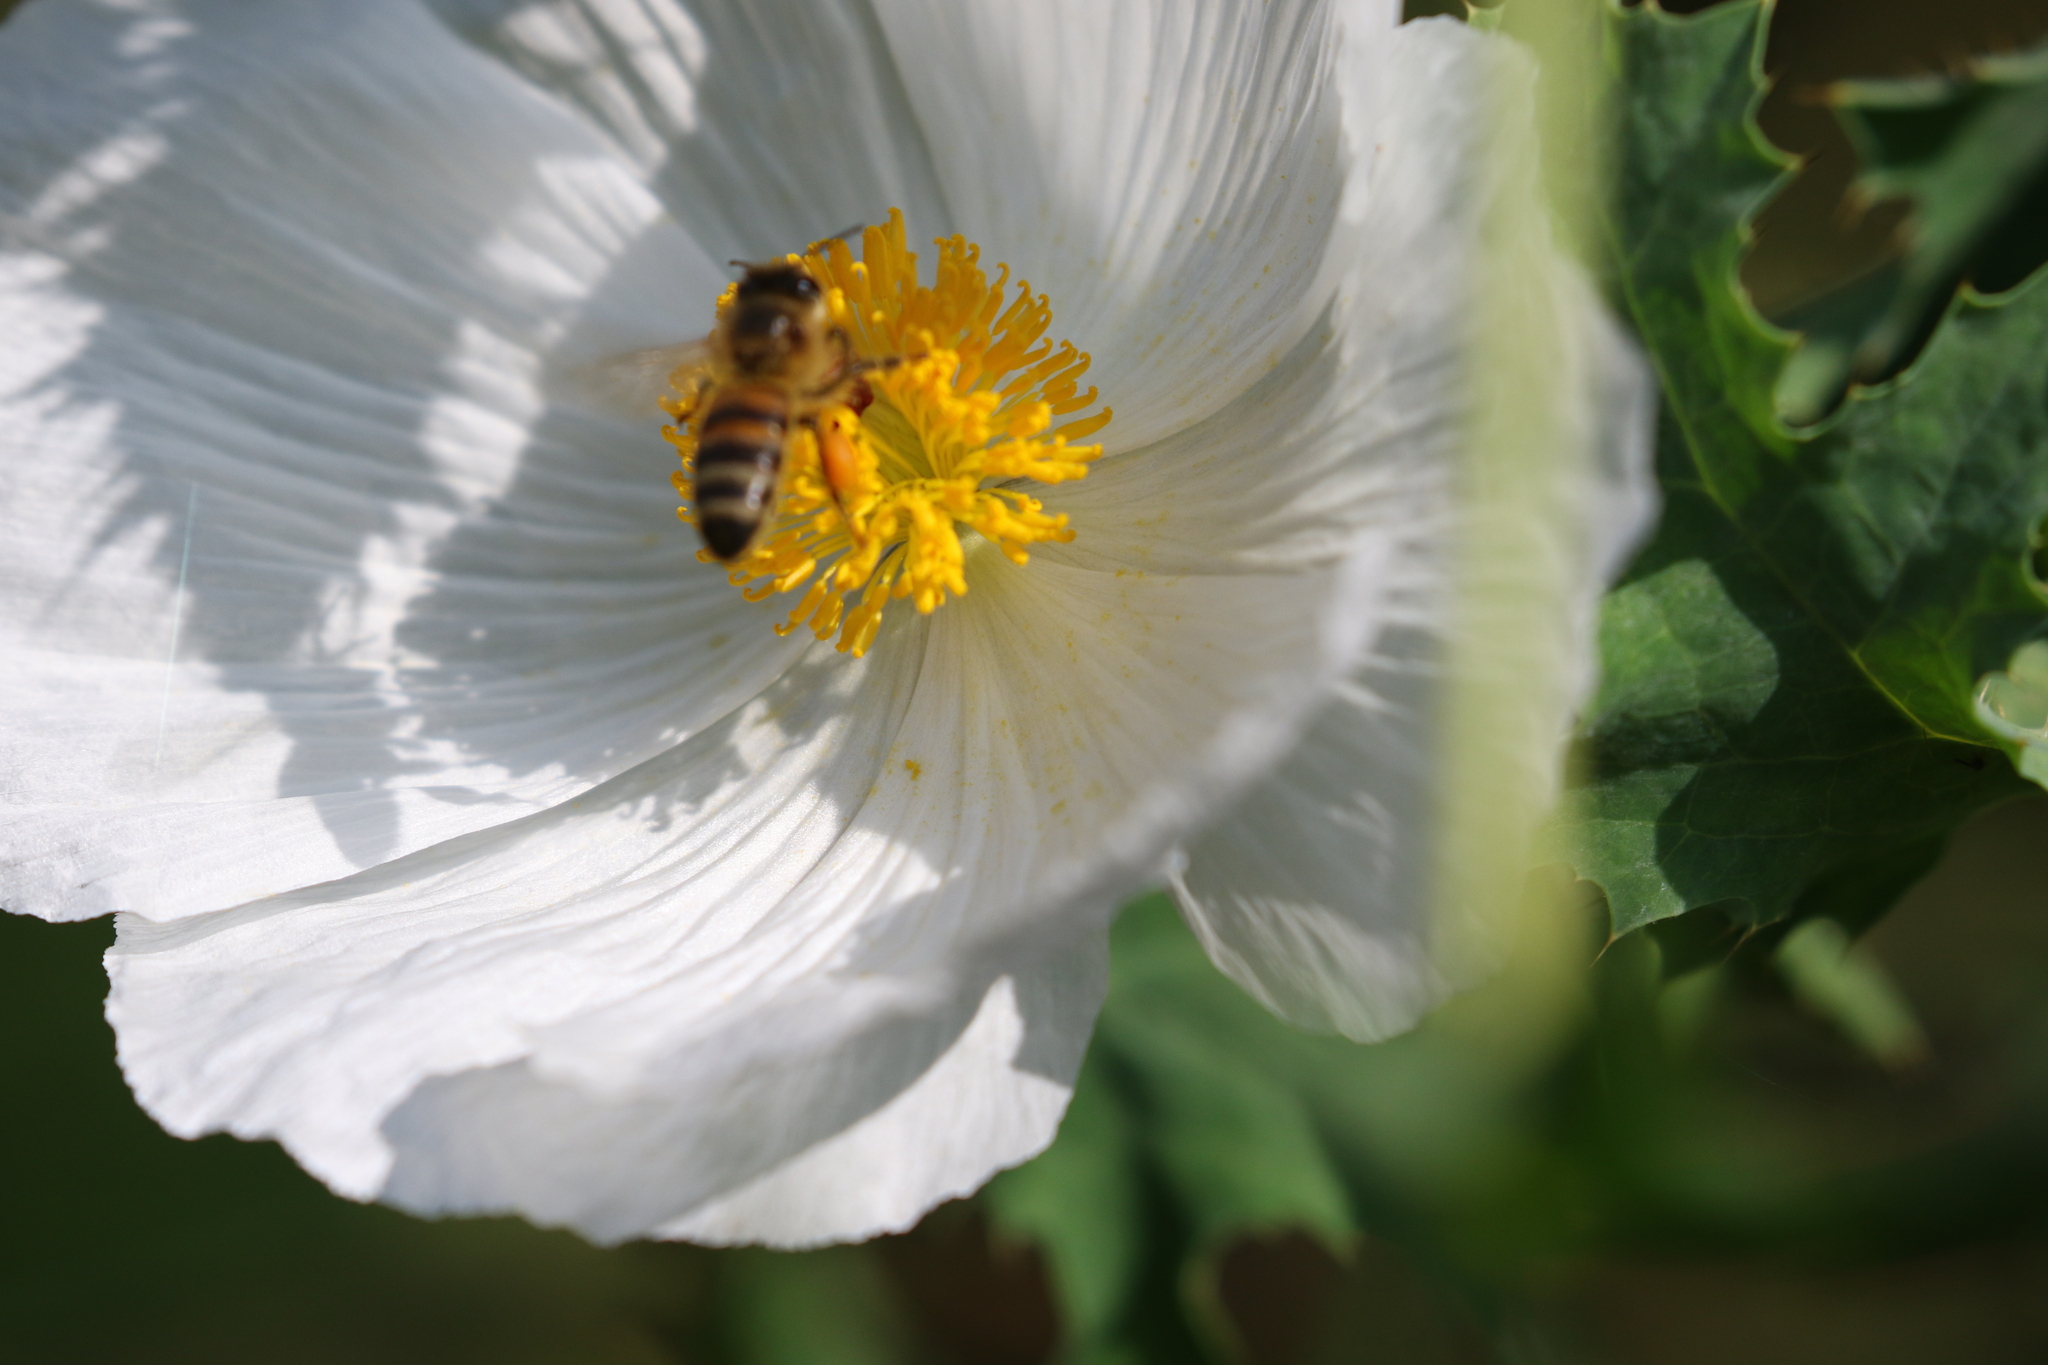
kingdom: Animalia
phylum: Arthropoda
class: Insecta
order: Hymenoptera
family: Apidae
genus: Apis
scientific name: Apis mellifera
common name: Honey bee
